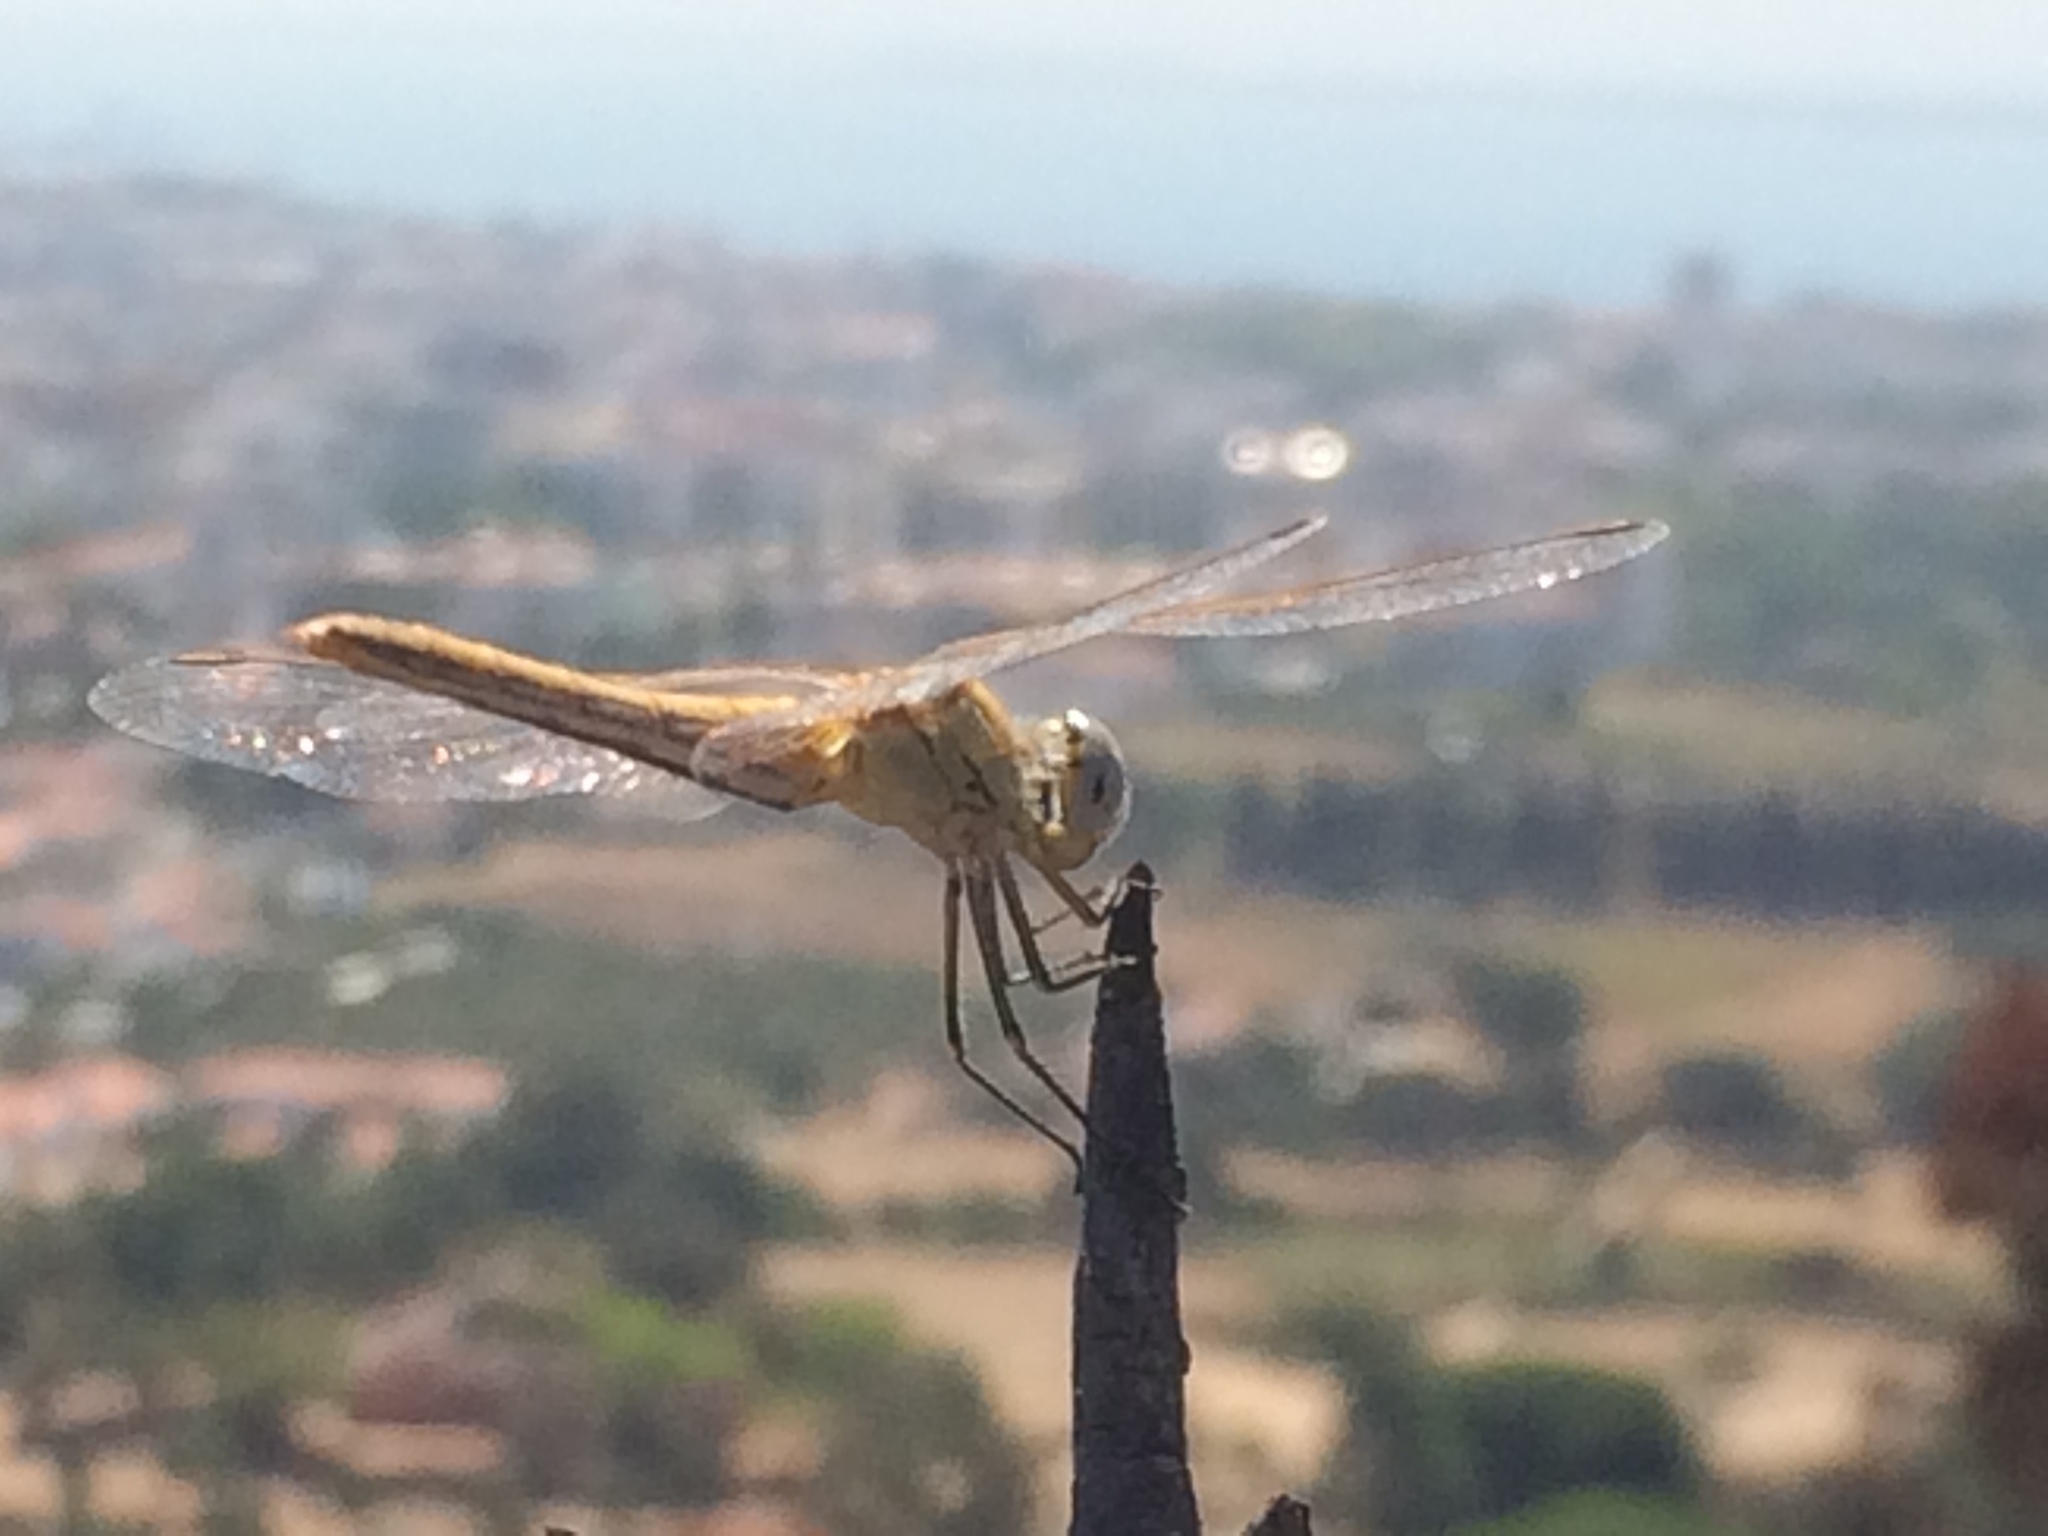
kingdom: Animalia
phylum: Arthropoda
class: Insecta
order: Odonata
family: Libellulidae
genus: Sympetrum
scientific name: Sympetrum fonscolombii
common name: Red-veined darter
